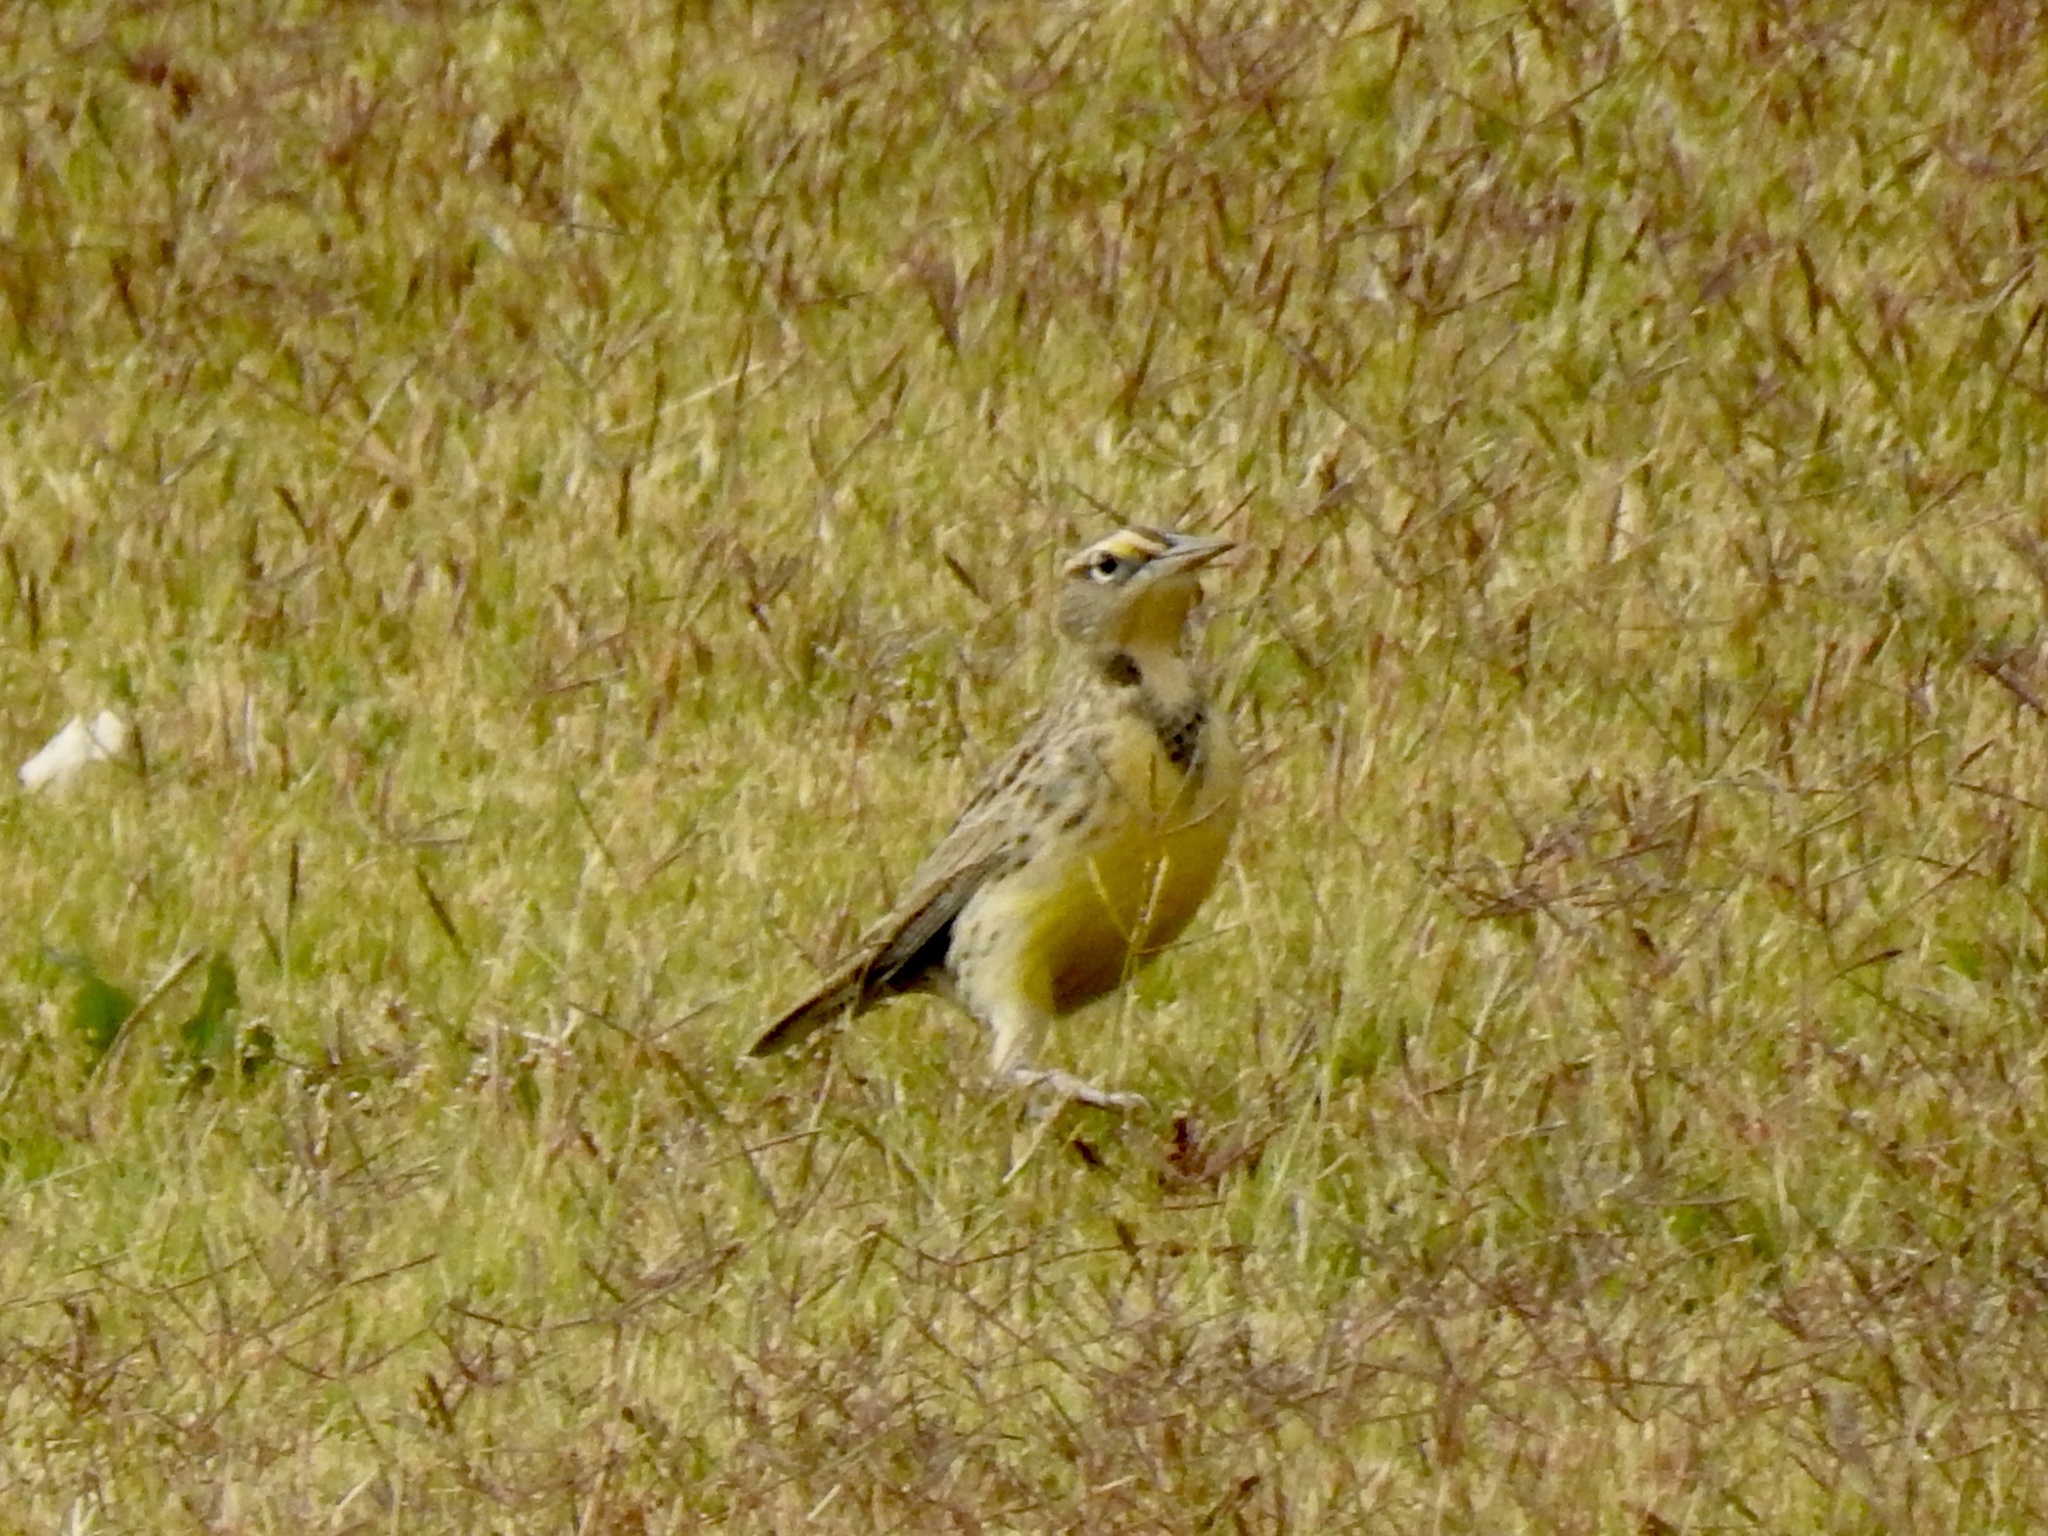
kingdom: Animalia
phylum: Chordata
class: Aves
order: Passeriformes
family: Icteridae
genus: Sturnella
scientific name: Sturnella neglecta
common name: Western meadowlark
